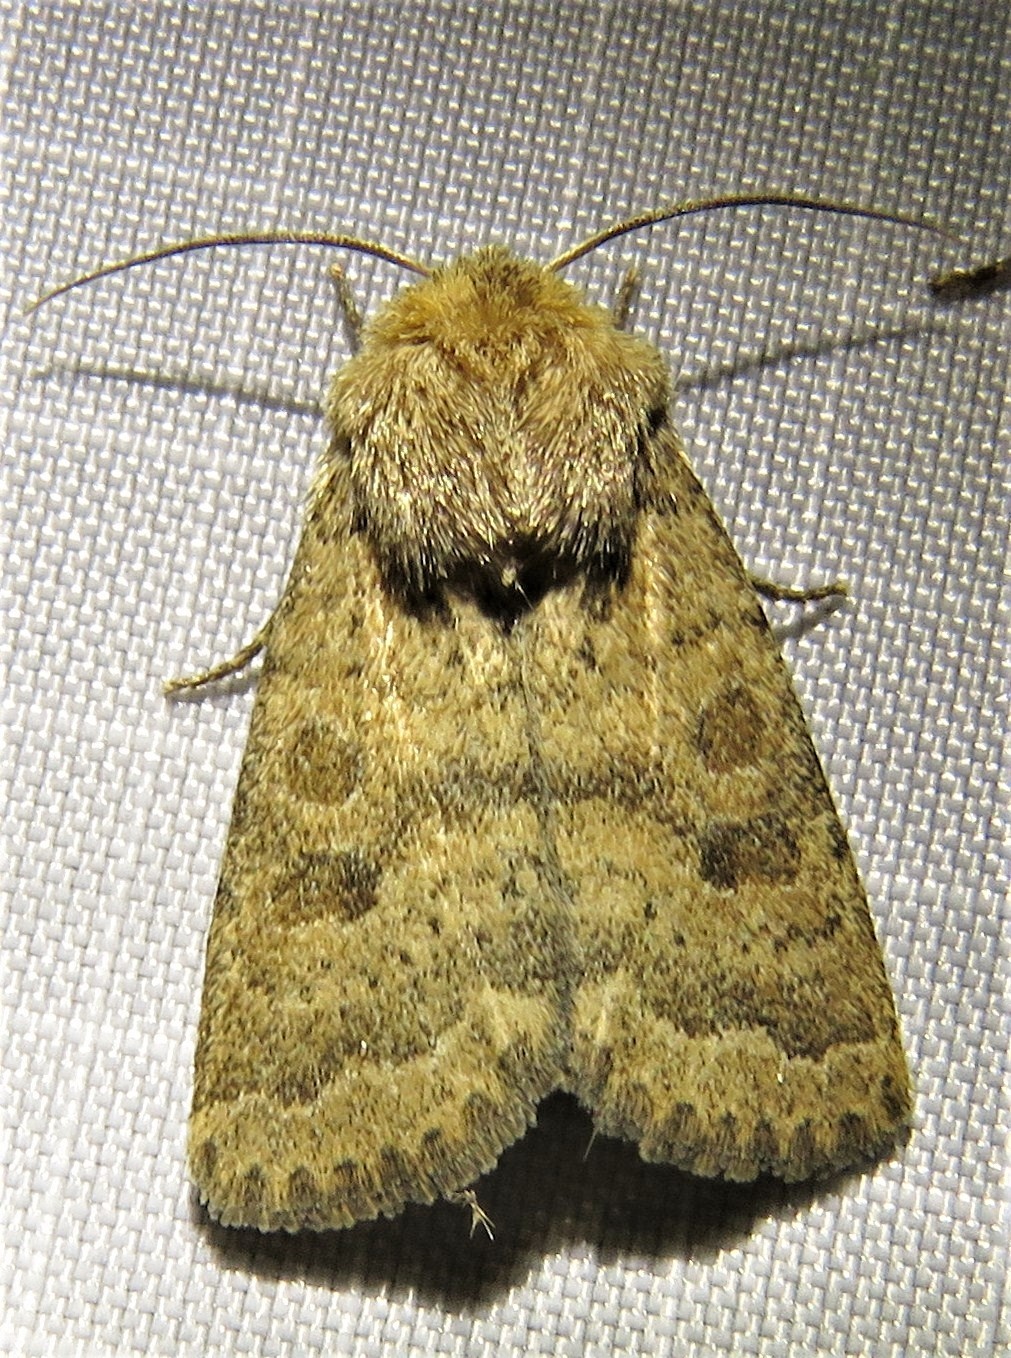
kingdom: Animalia
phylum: Arthropoda
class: Insecta
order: Lepidoptera
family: Noctuidae
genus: Hoplodrina
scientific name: Hoplodrina octogenaria
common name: Uncertain
